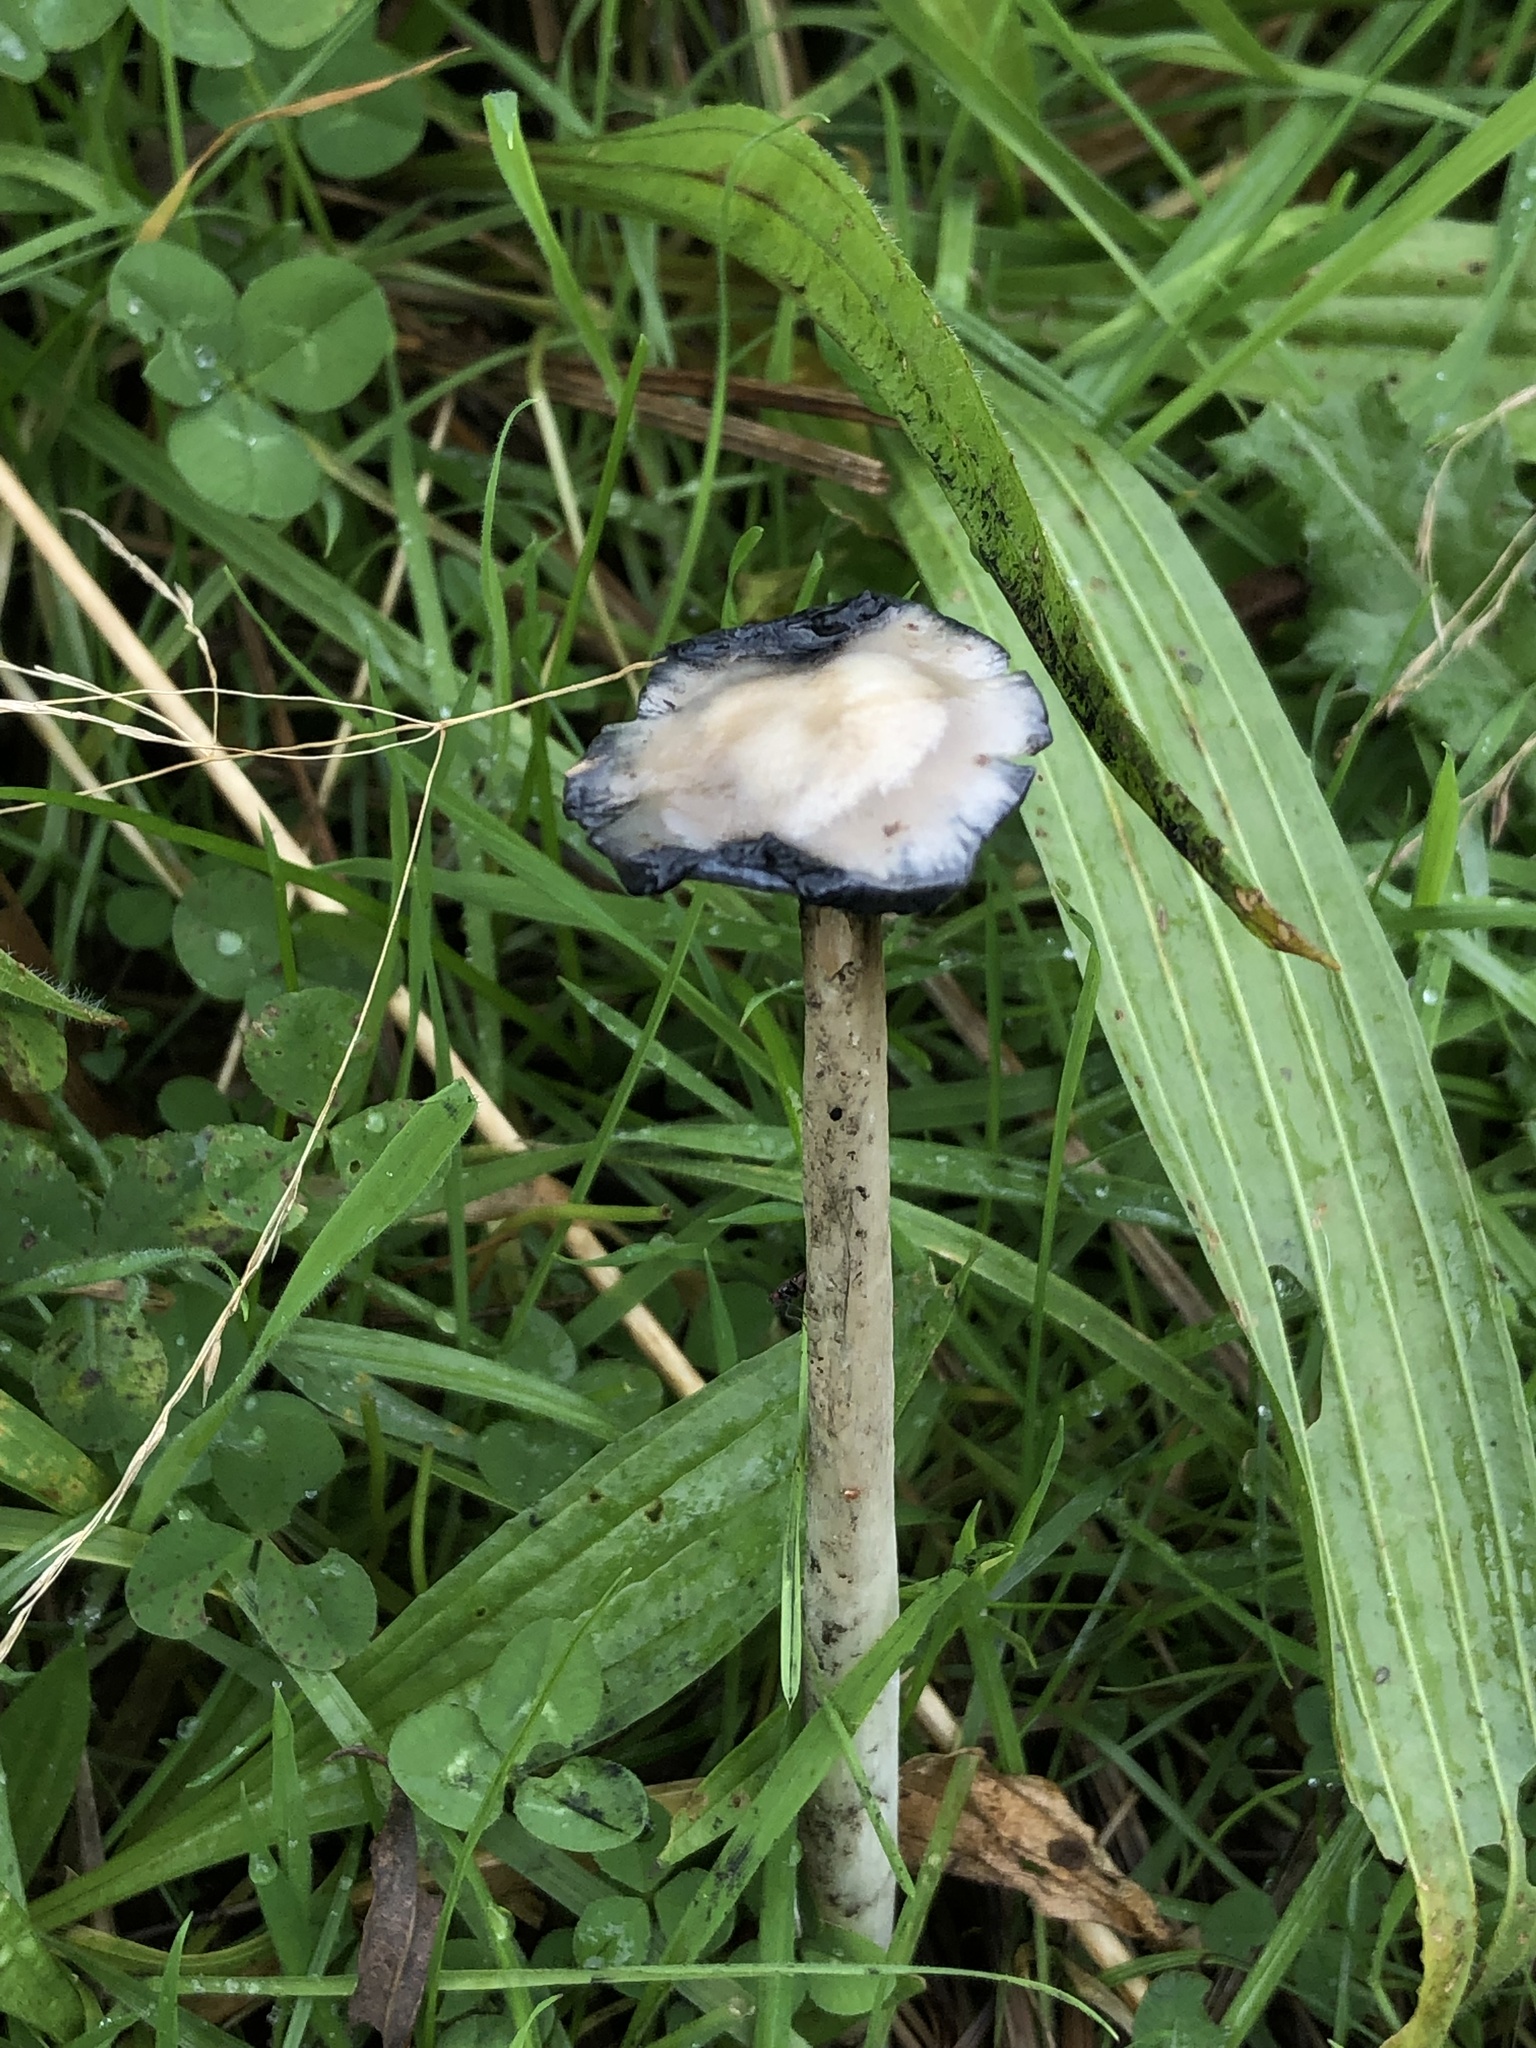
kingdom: Fungi
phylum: Basidiomycota
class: Agaricomycetes
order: Agaricales
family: Agaricaceae
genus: Coprinus
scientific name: Coprinus comatus
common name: Lawyer's wig
